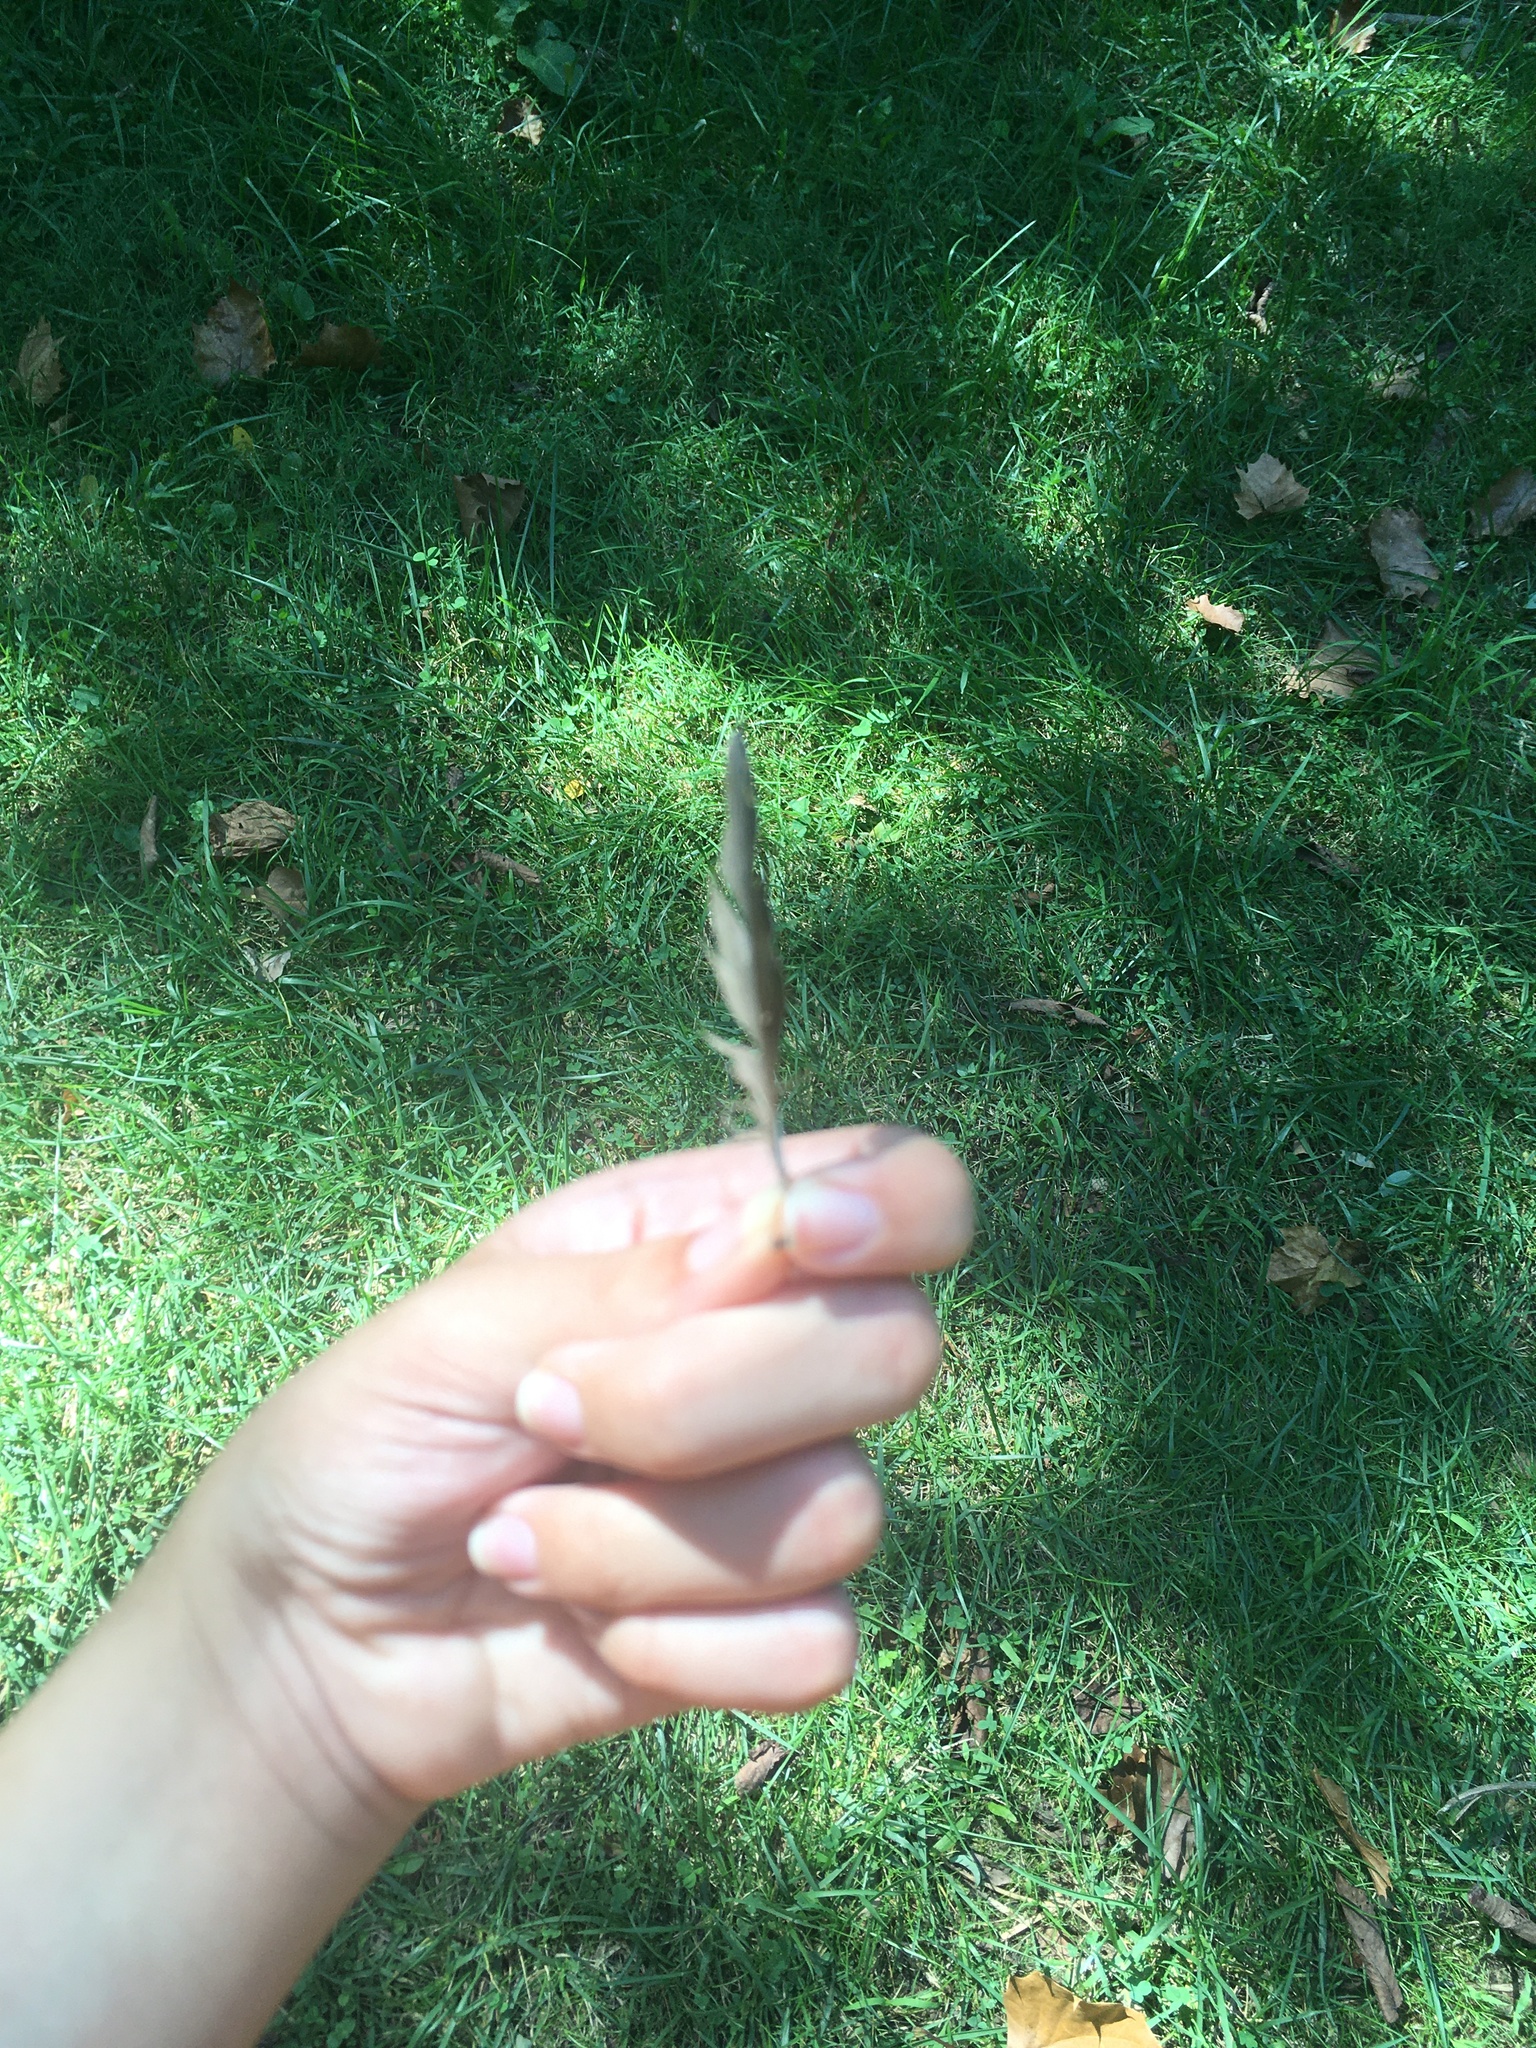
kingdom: Animalia
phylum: Chordata
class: Aves
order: Passeriformes
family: Sturnidae
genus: Sturnus
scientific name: Sturnus vulgaris
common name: Common starling
